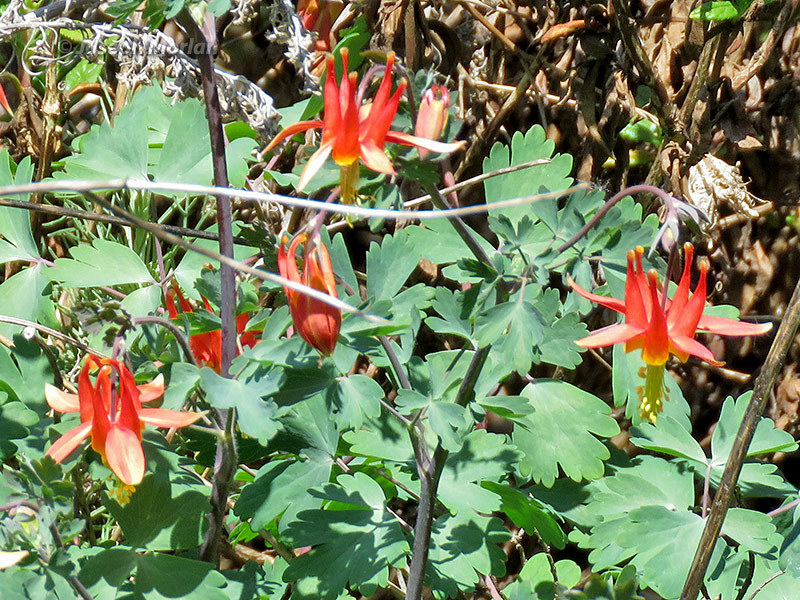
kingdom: Plantae
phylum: Tracheophyta
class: Magnoliopsida
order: Ranunculales
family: Ranunculaceae
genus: Aquilegia
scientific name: Aquilegia formosa
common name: Sitka columbine
